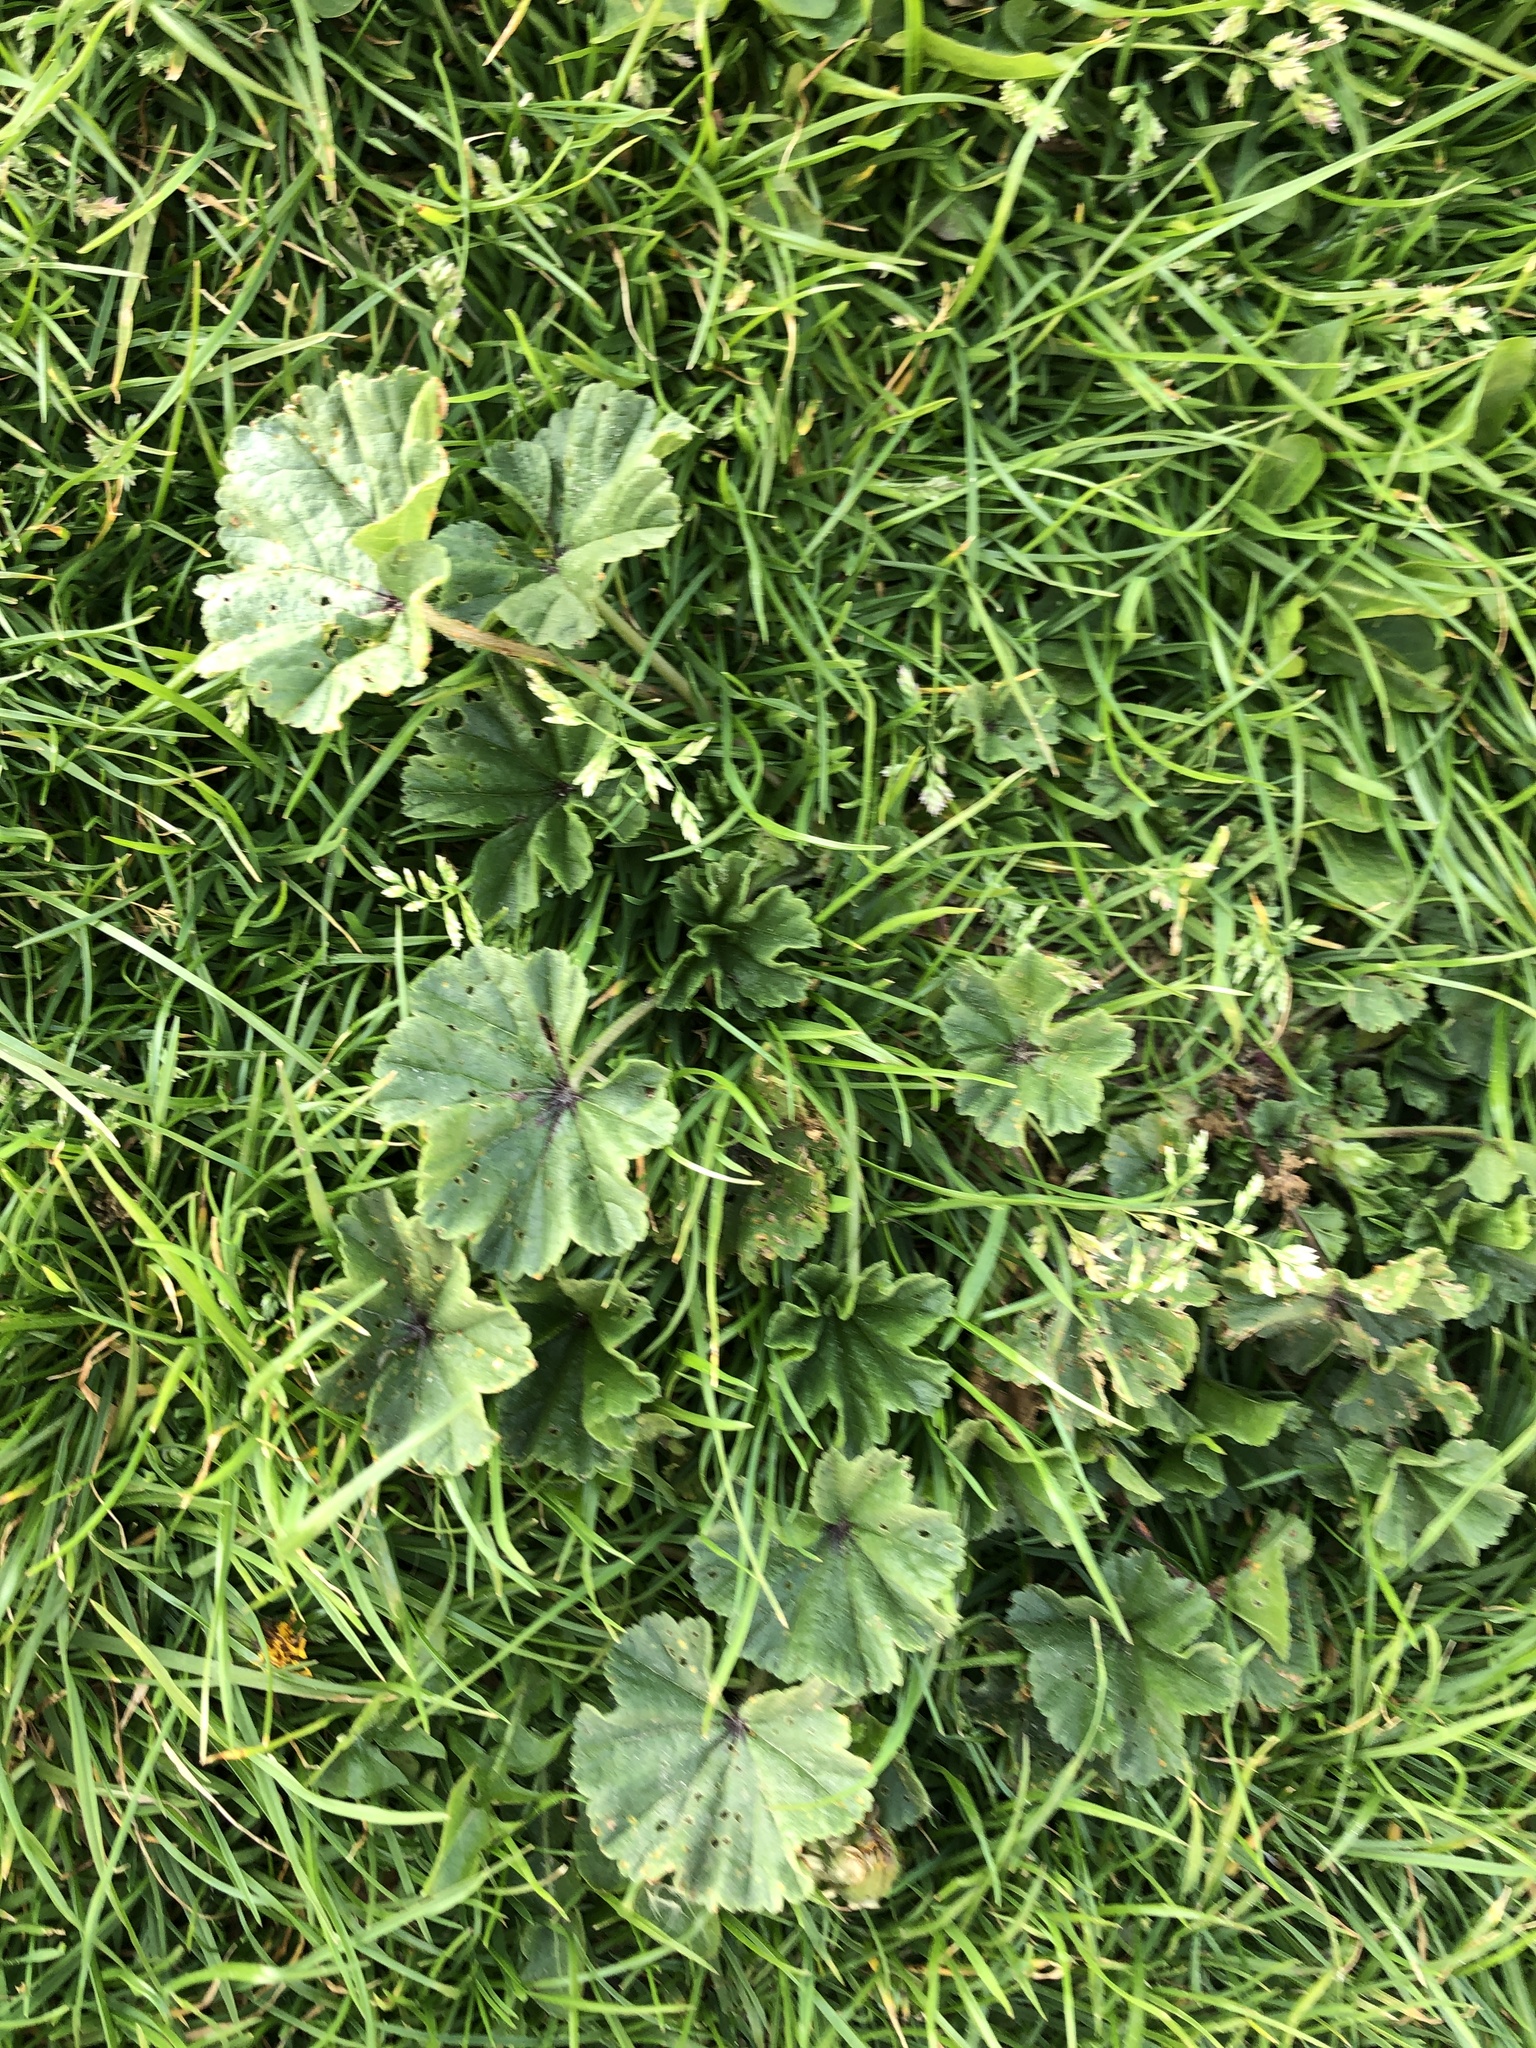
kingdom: Plantae
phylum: Tracheophyta
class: Magnoliopsida
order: Malvales
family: Malvaceae
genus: Malva
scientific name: Malva sylvestris
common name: Common mallow
